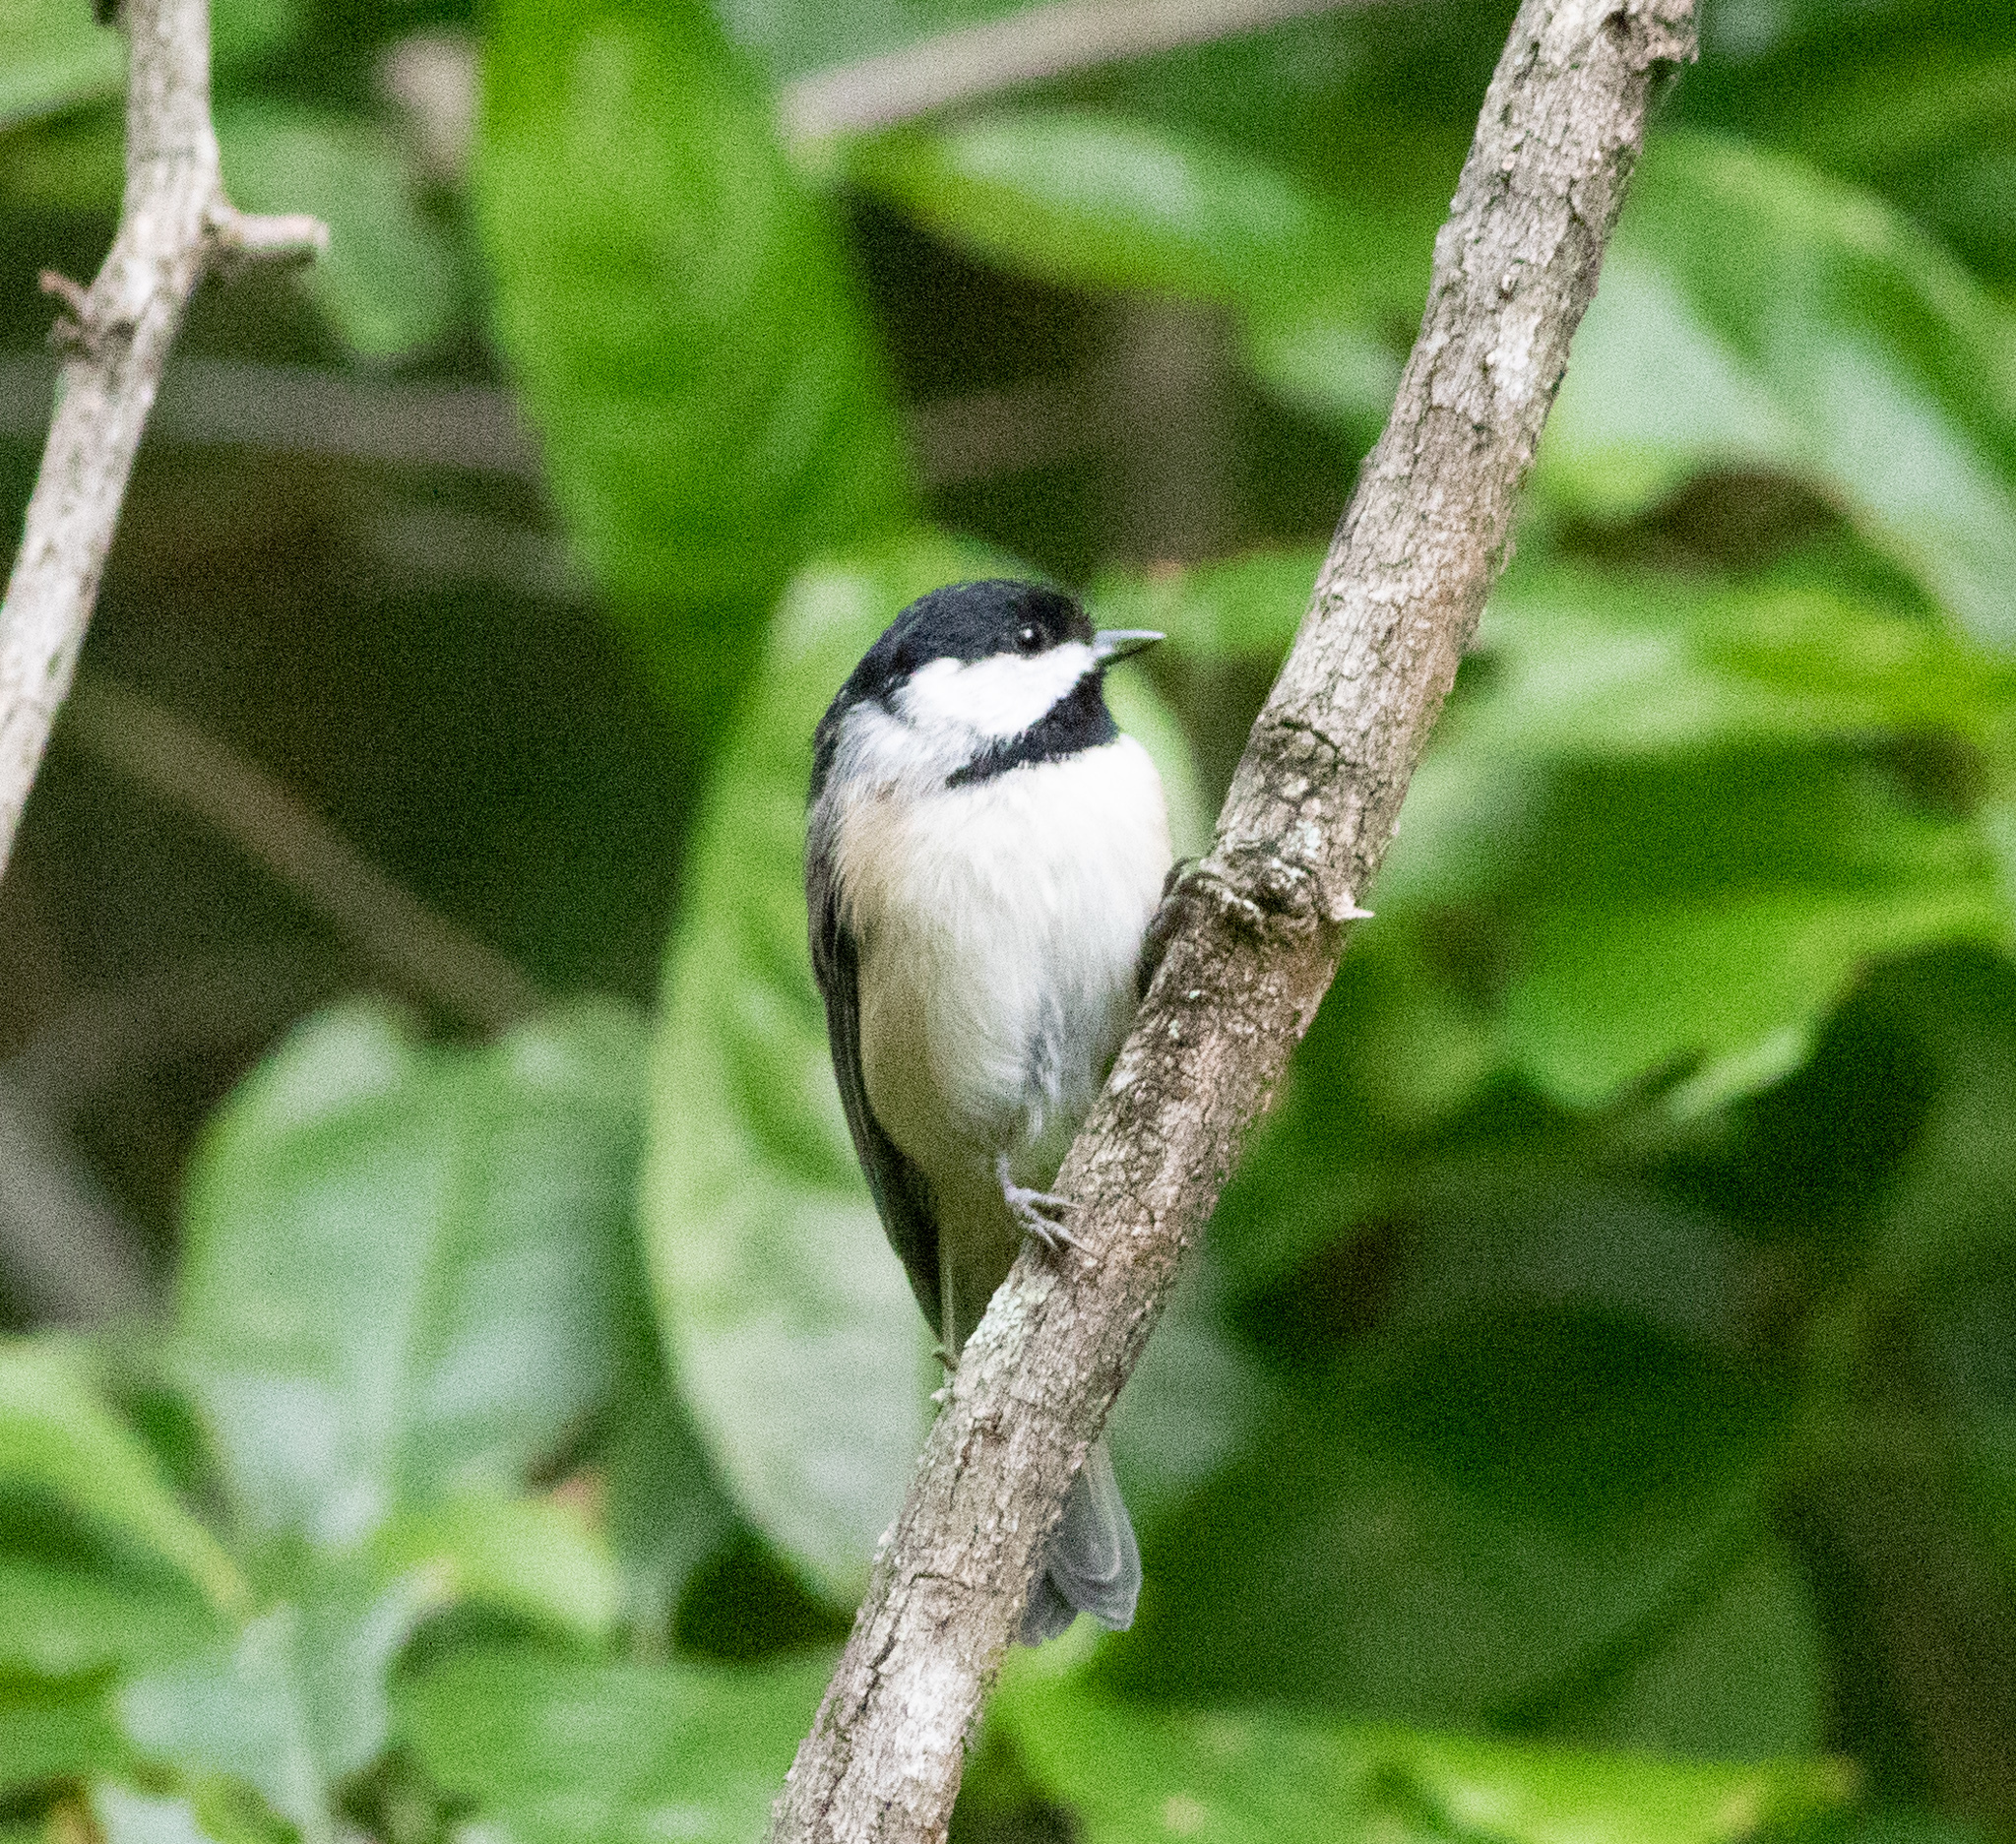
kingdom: Animalia
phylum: Chordata
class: Aves
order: Passeriformes
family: Paridae
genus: Poecile
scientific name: Poecile carolinensis
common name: Carolina chickadee
